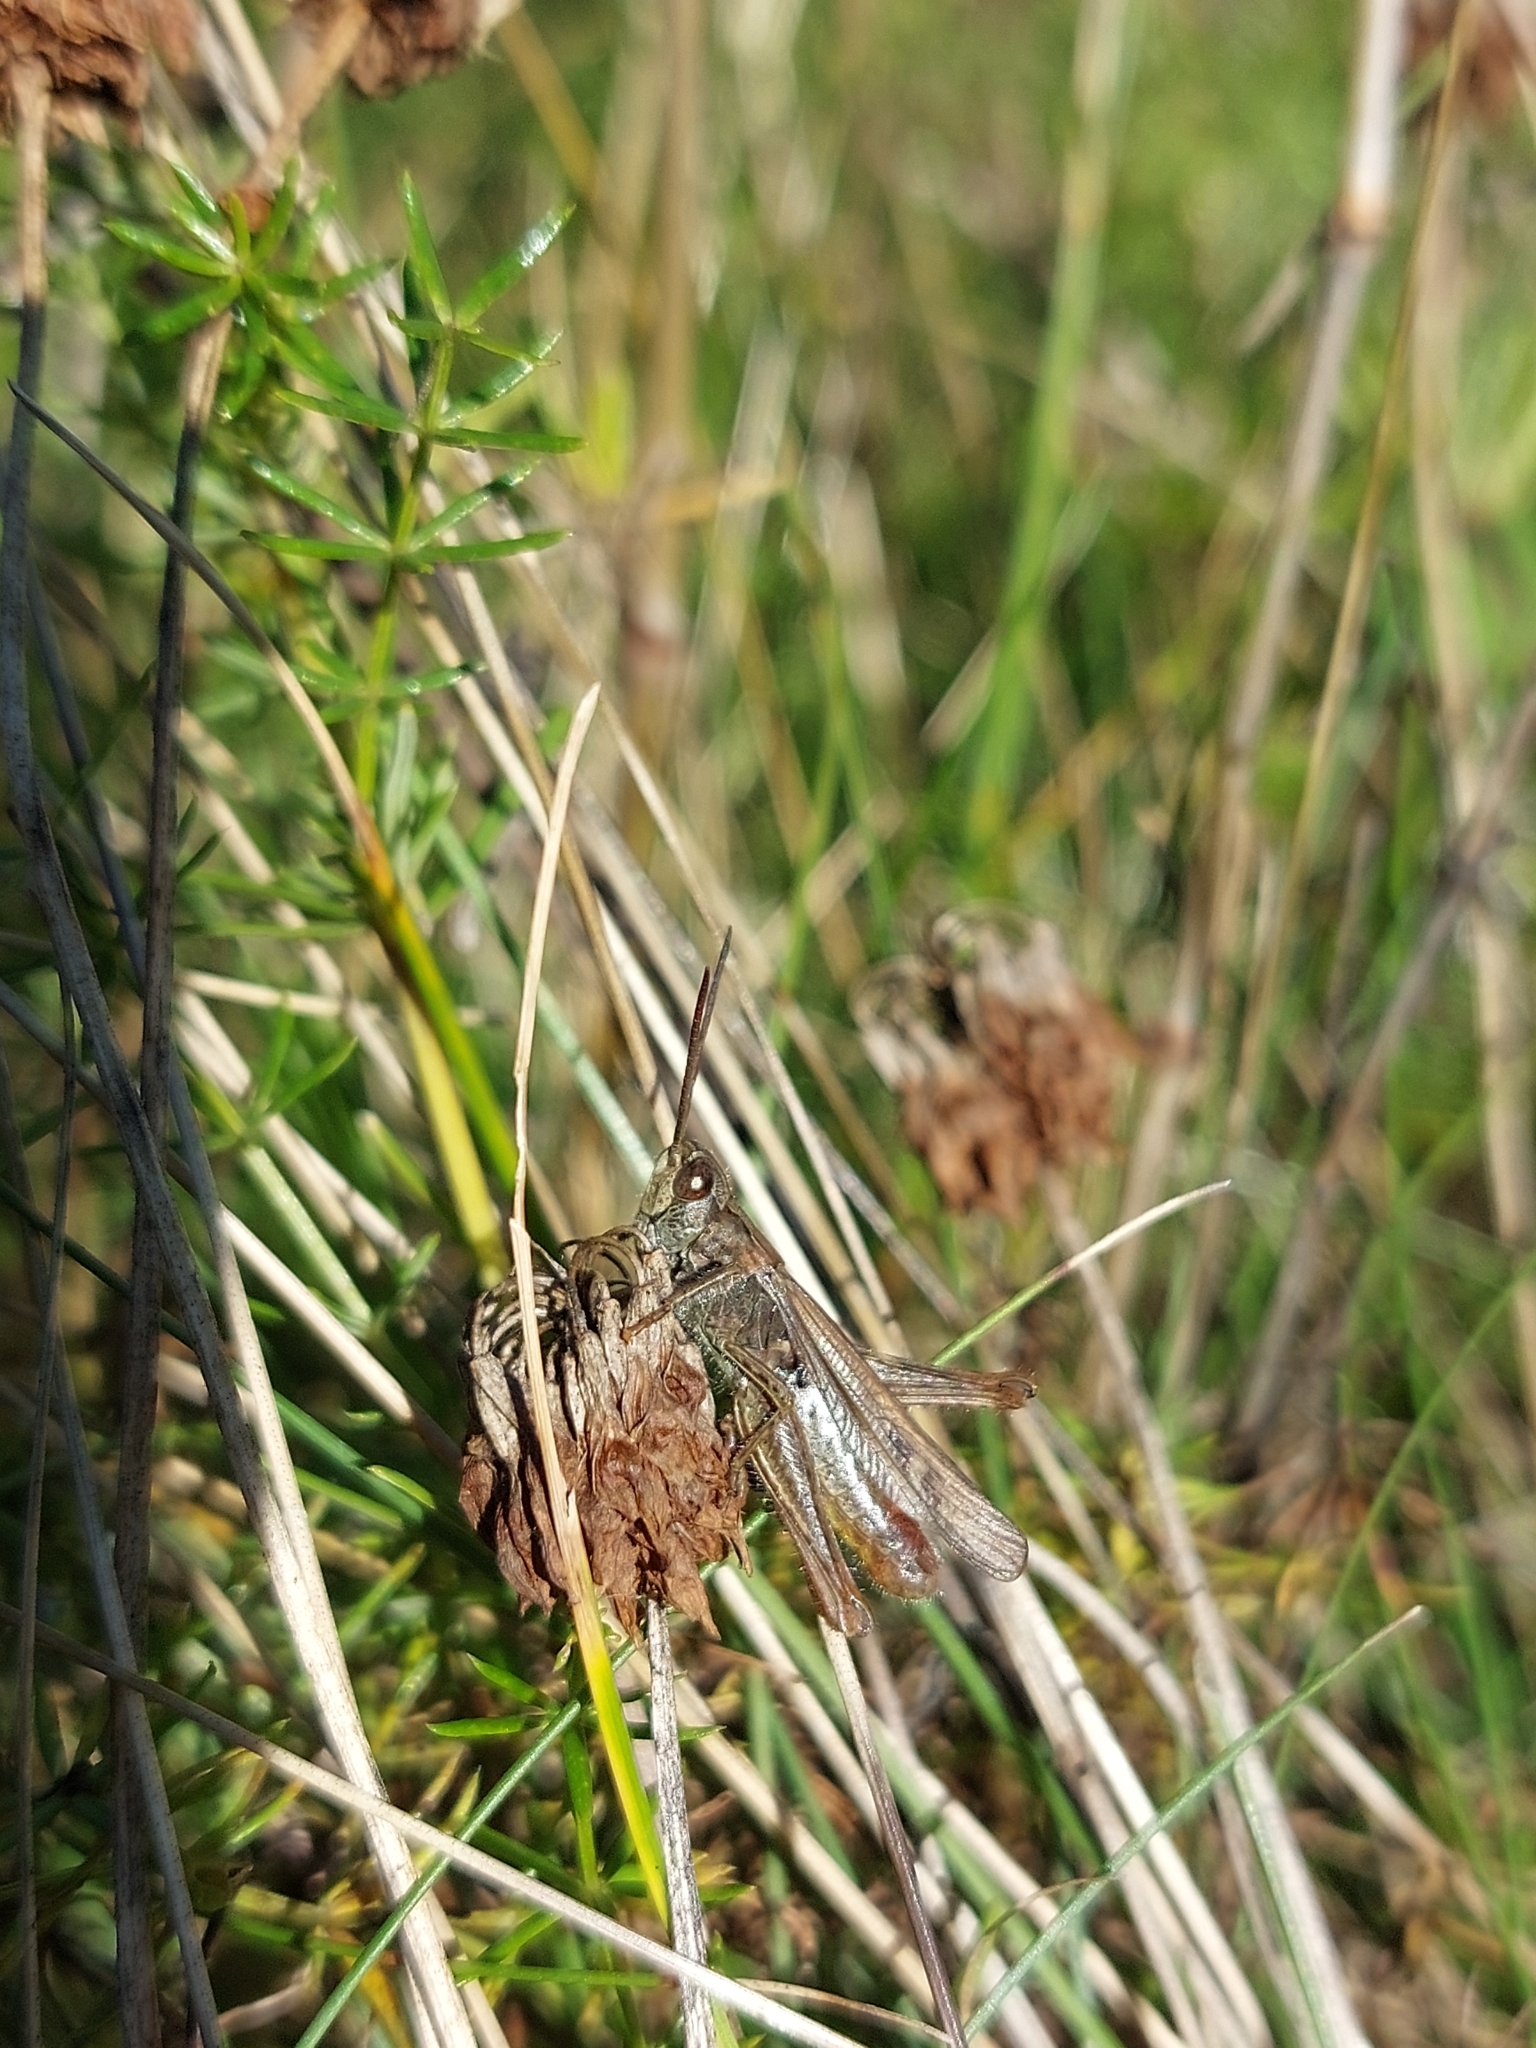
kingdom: Animalia
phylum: Arthropoda
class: Insecta
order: Orthoptera
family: Acrididae
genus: Chorthippus
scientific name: Chorthippus mollis
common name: Lesser field grasshopper
